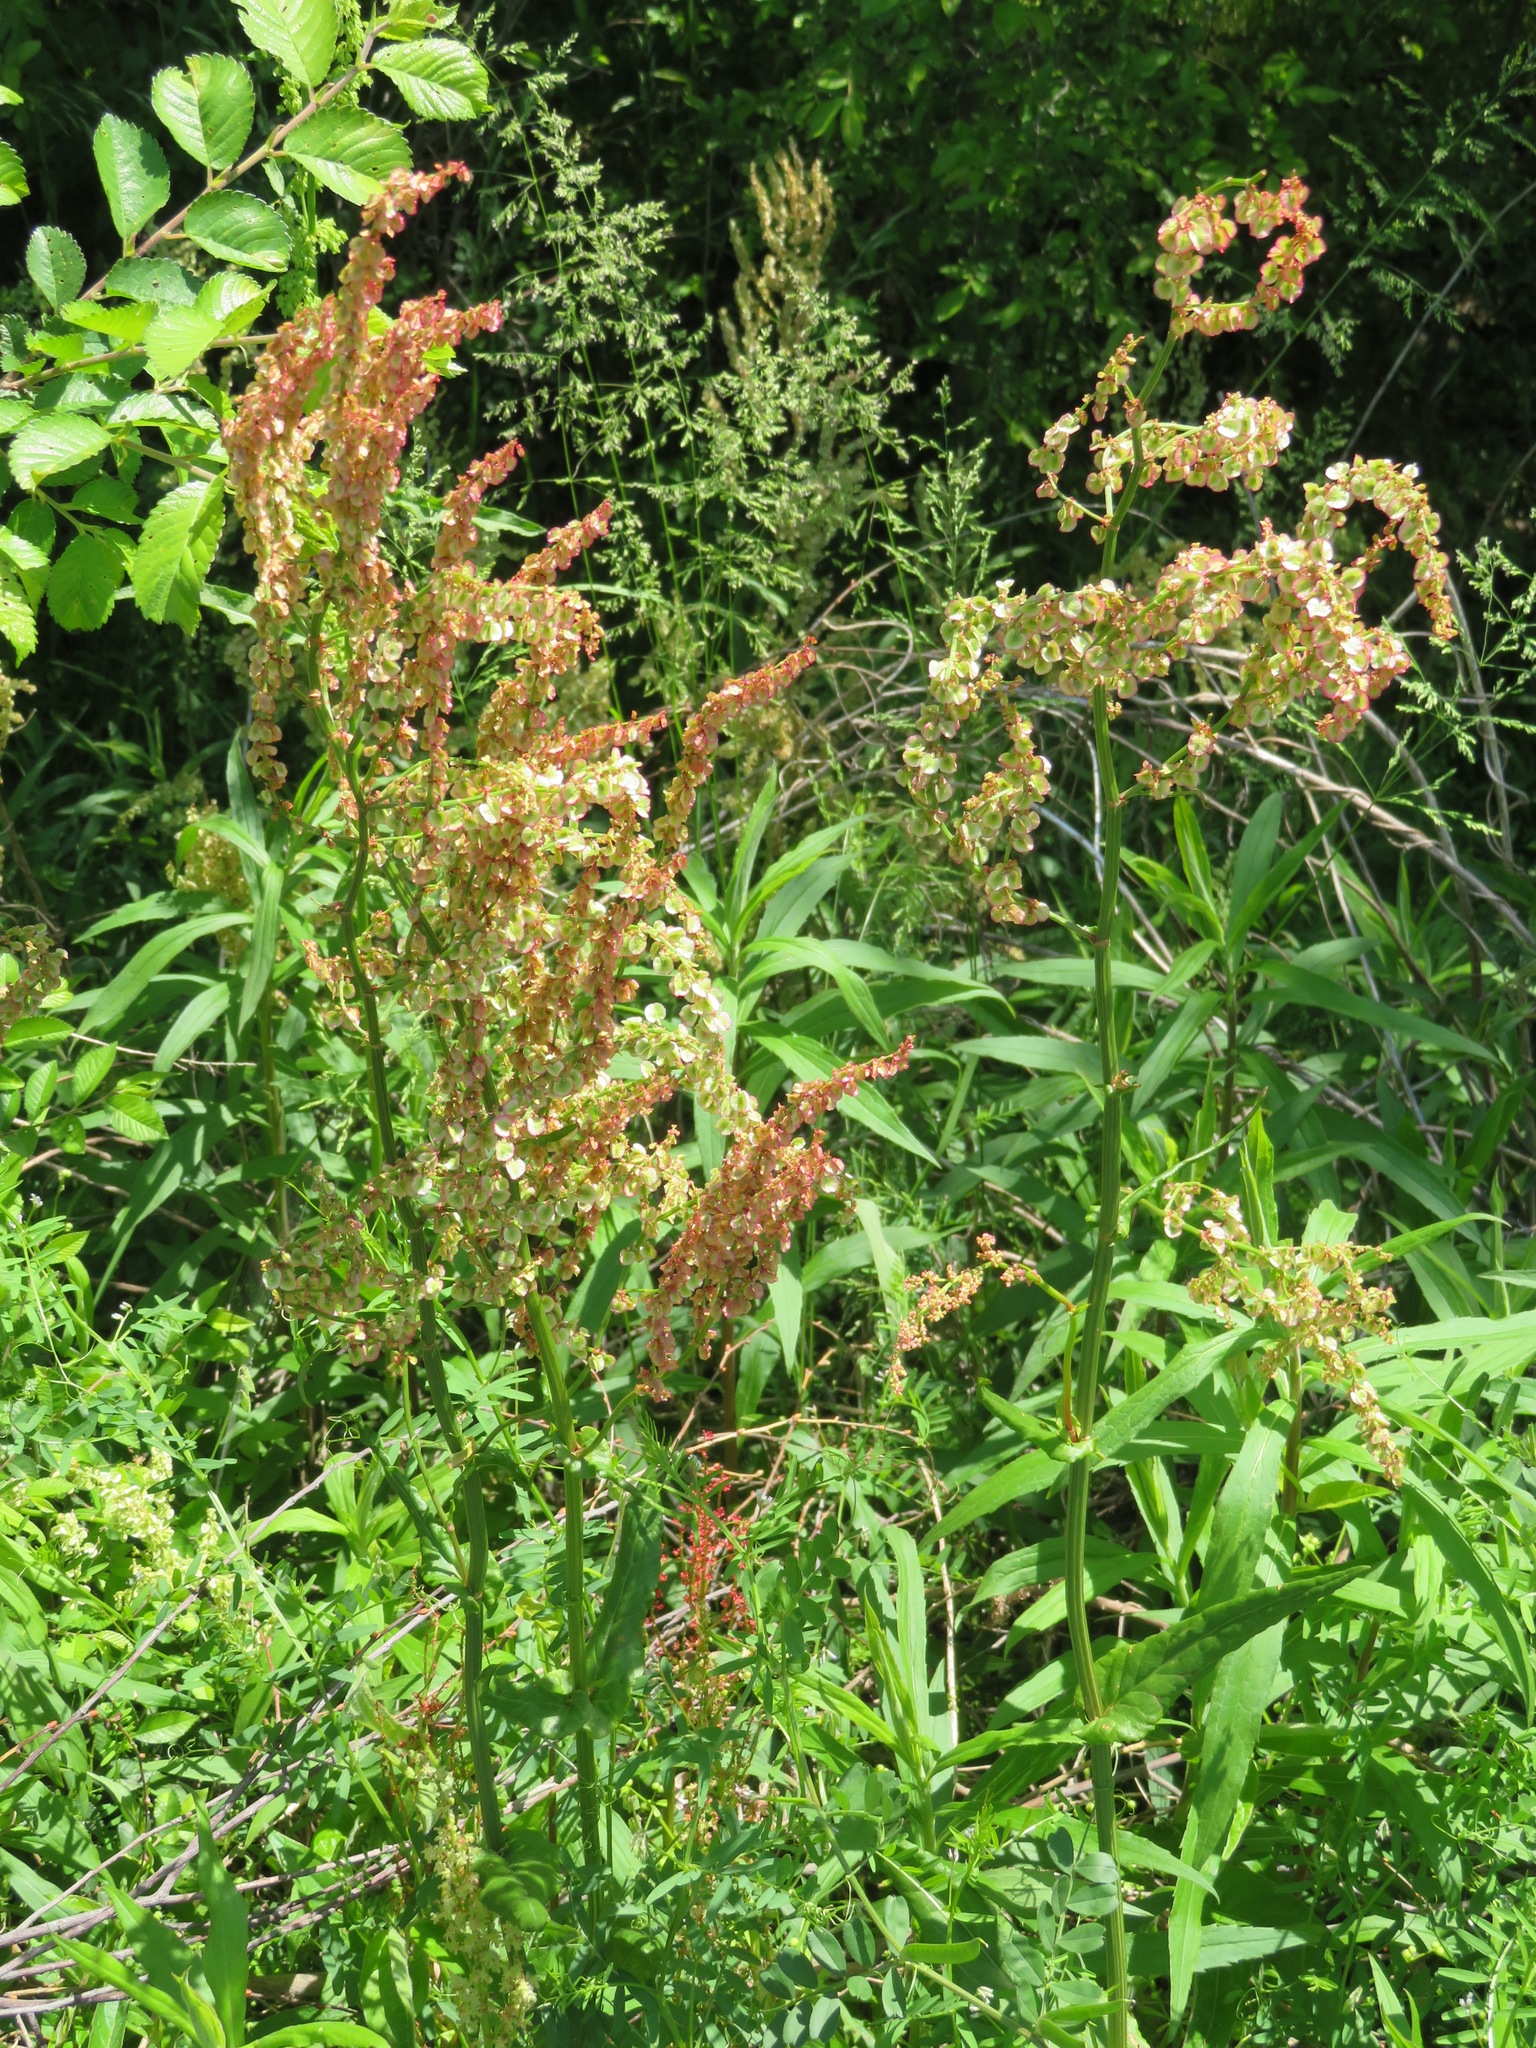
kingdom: Plantae
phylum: Tracheophyta
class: Magnoliopsida
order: Caryophyllales
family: Polygonaceae
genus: Rumex
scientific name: Rumex acetosa
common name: Garden sorrel
